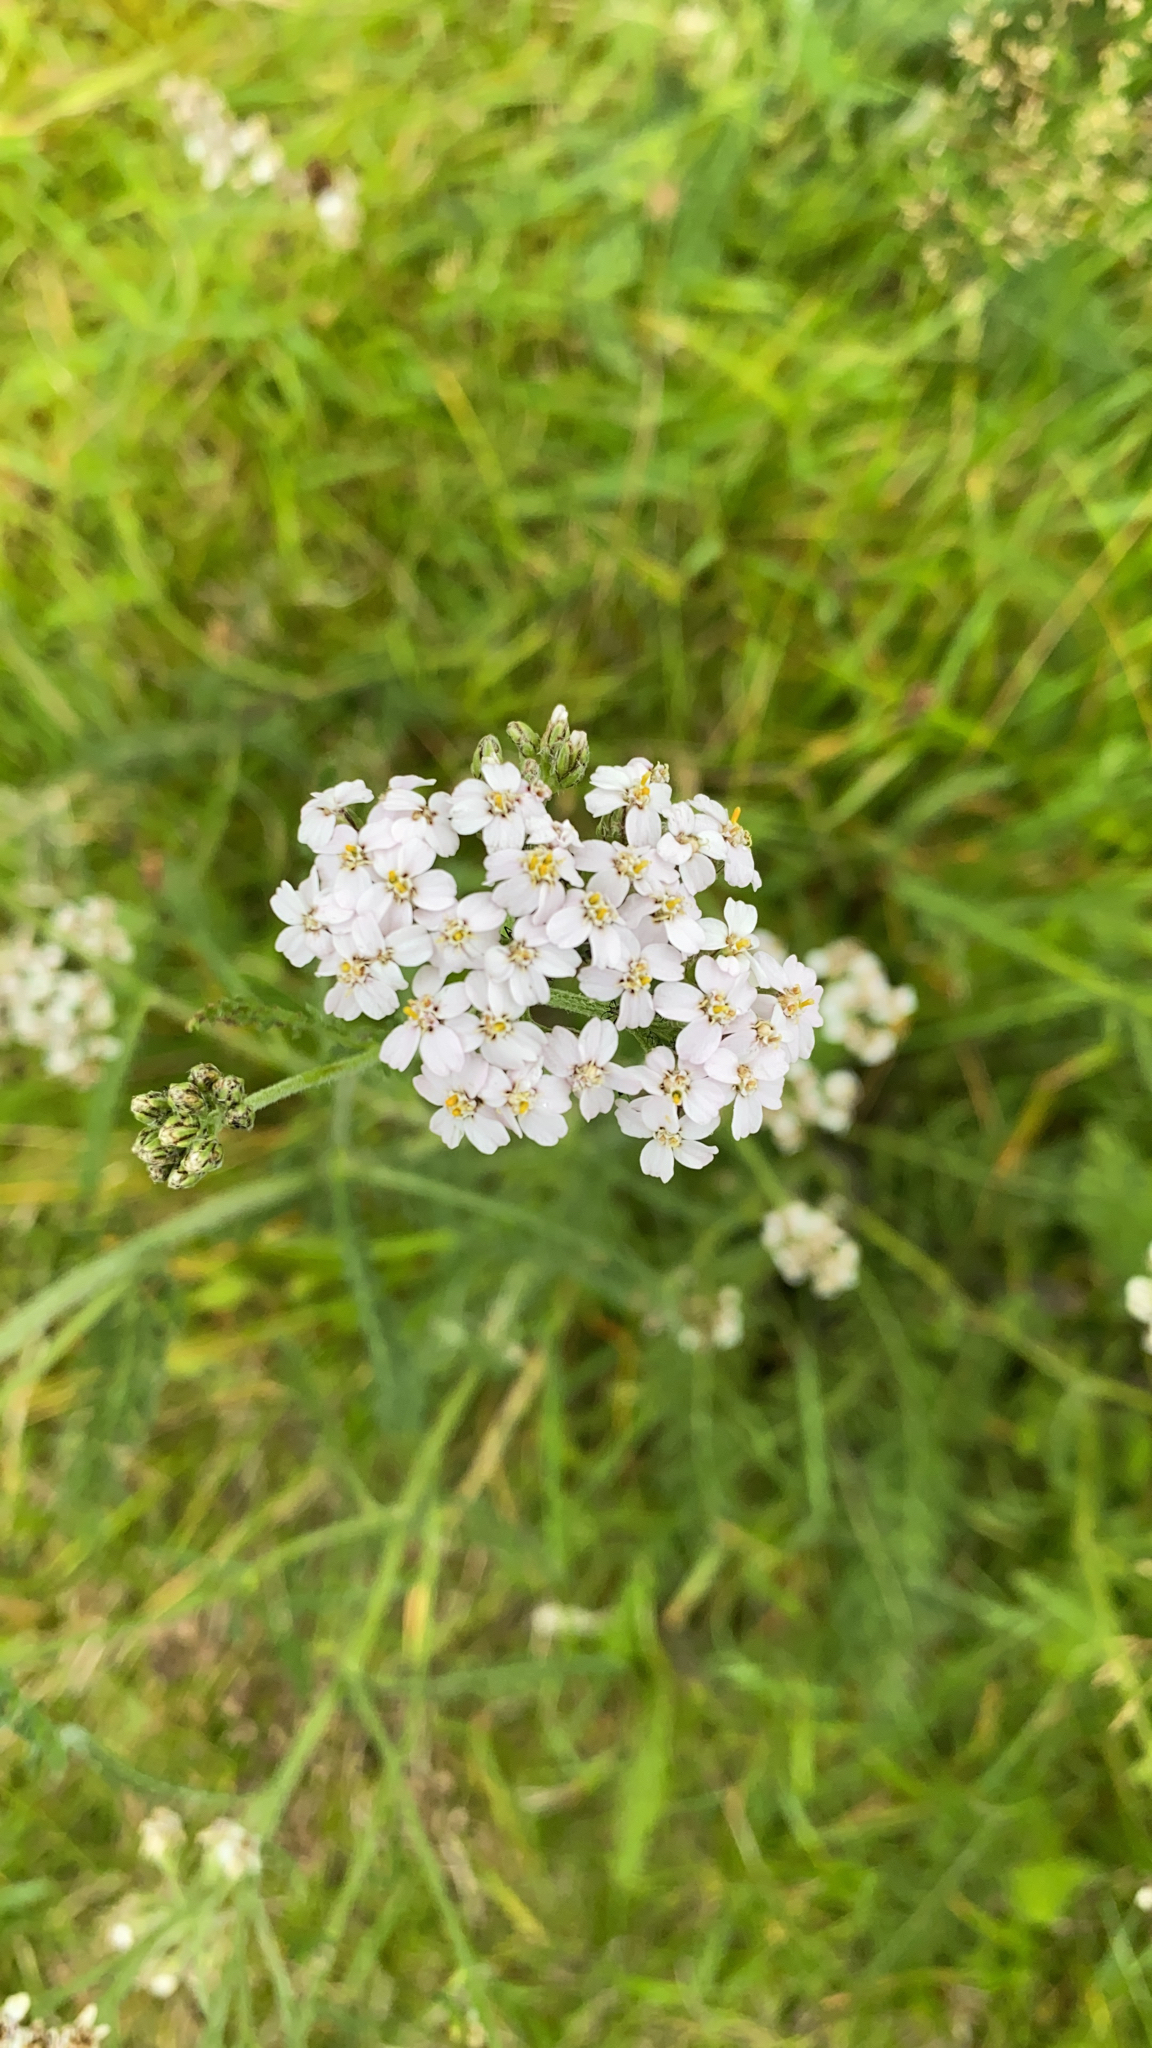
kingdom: Plantae
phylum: Tracheophyta
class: Magnoliopsida
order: Asterales
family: Asteraceae
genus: Achillea
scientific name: Achillea millefolium
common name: Yarrow
